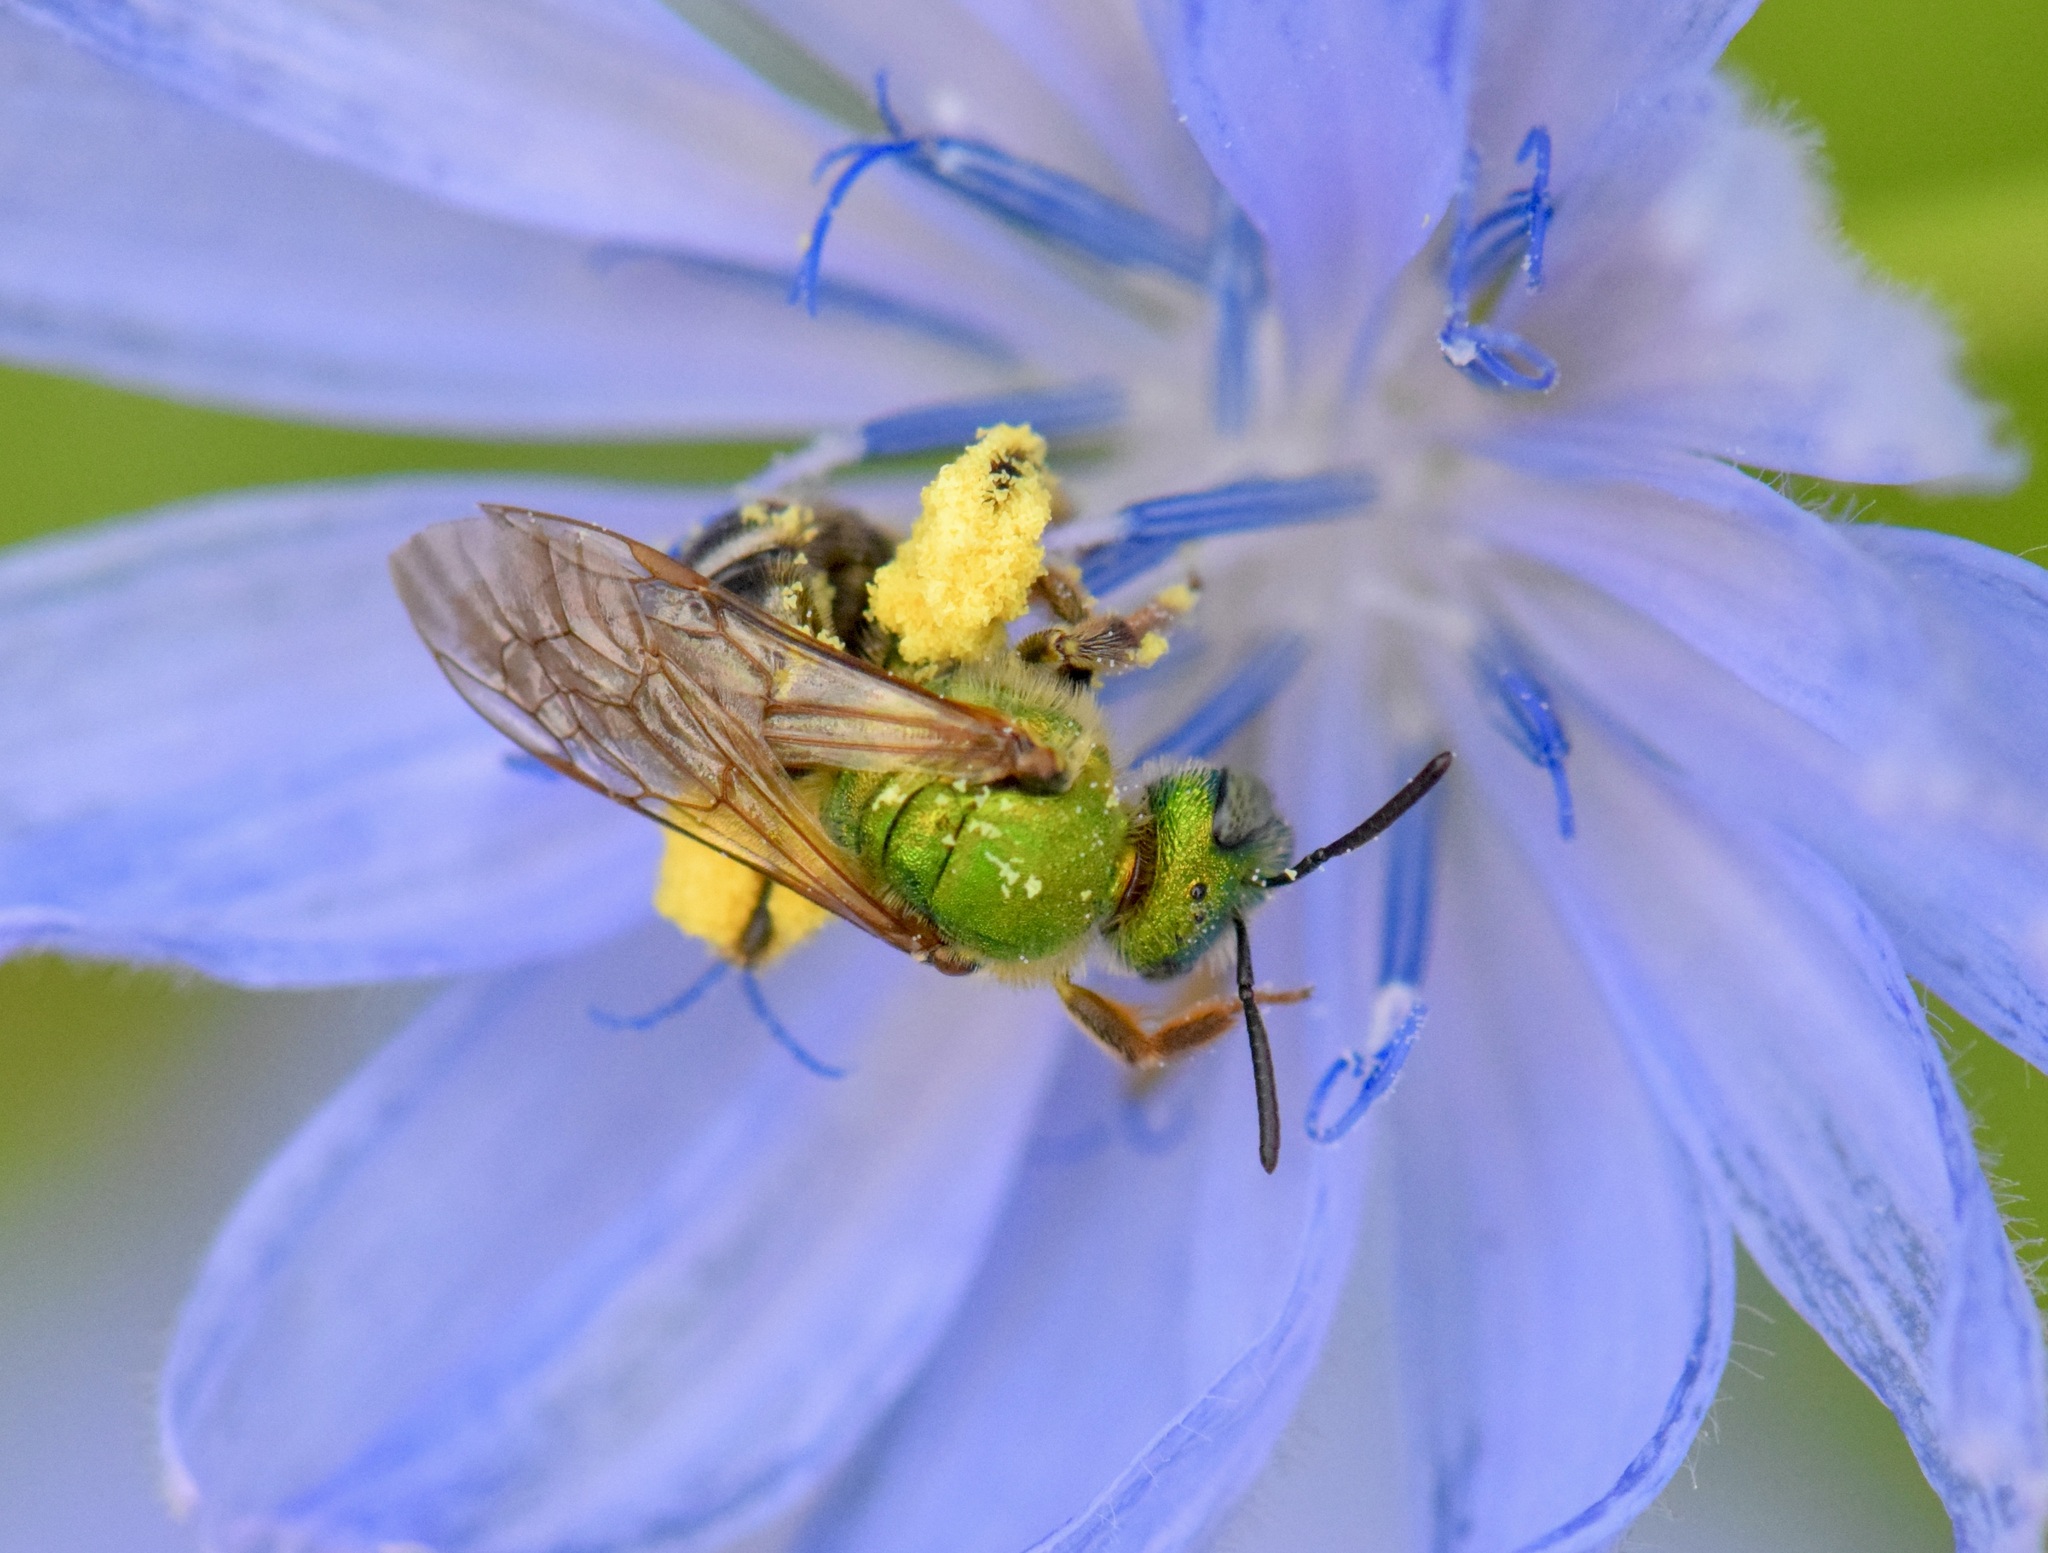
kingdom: Animalia
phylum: Arthropoda
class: Insecta
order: Hymenoptera
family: Halictidae
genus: Agapostemon
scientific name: Agapostemon virescens
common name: Bicolored striped sweat bee
